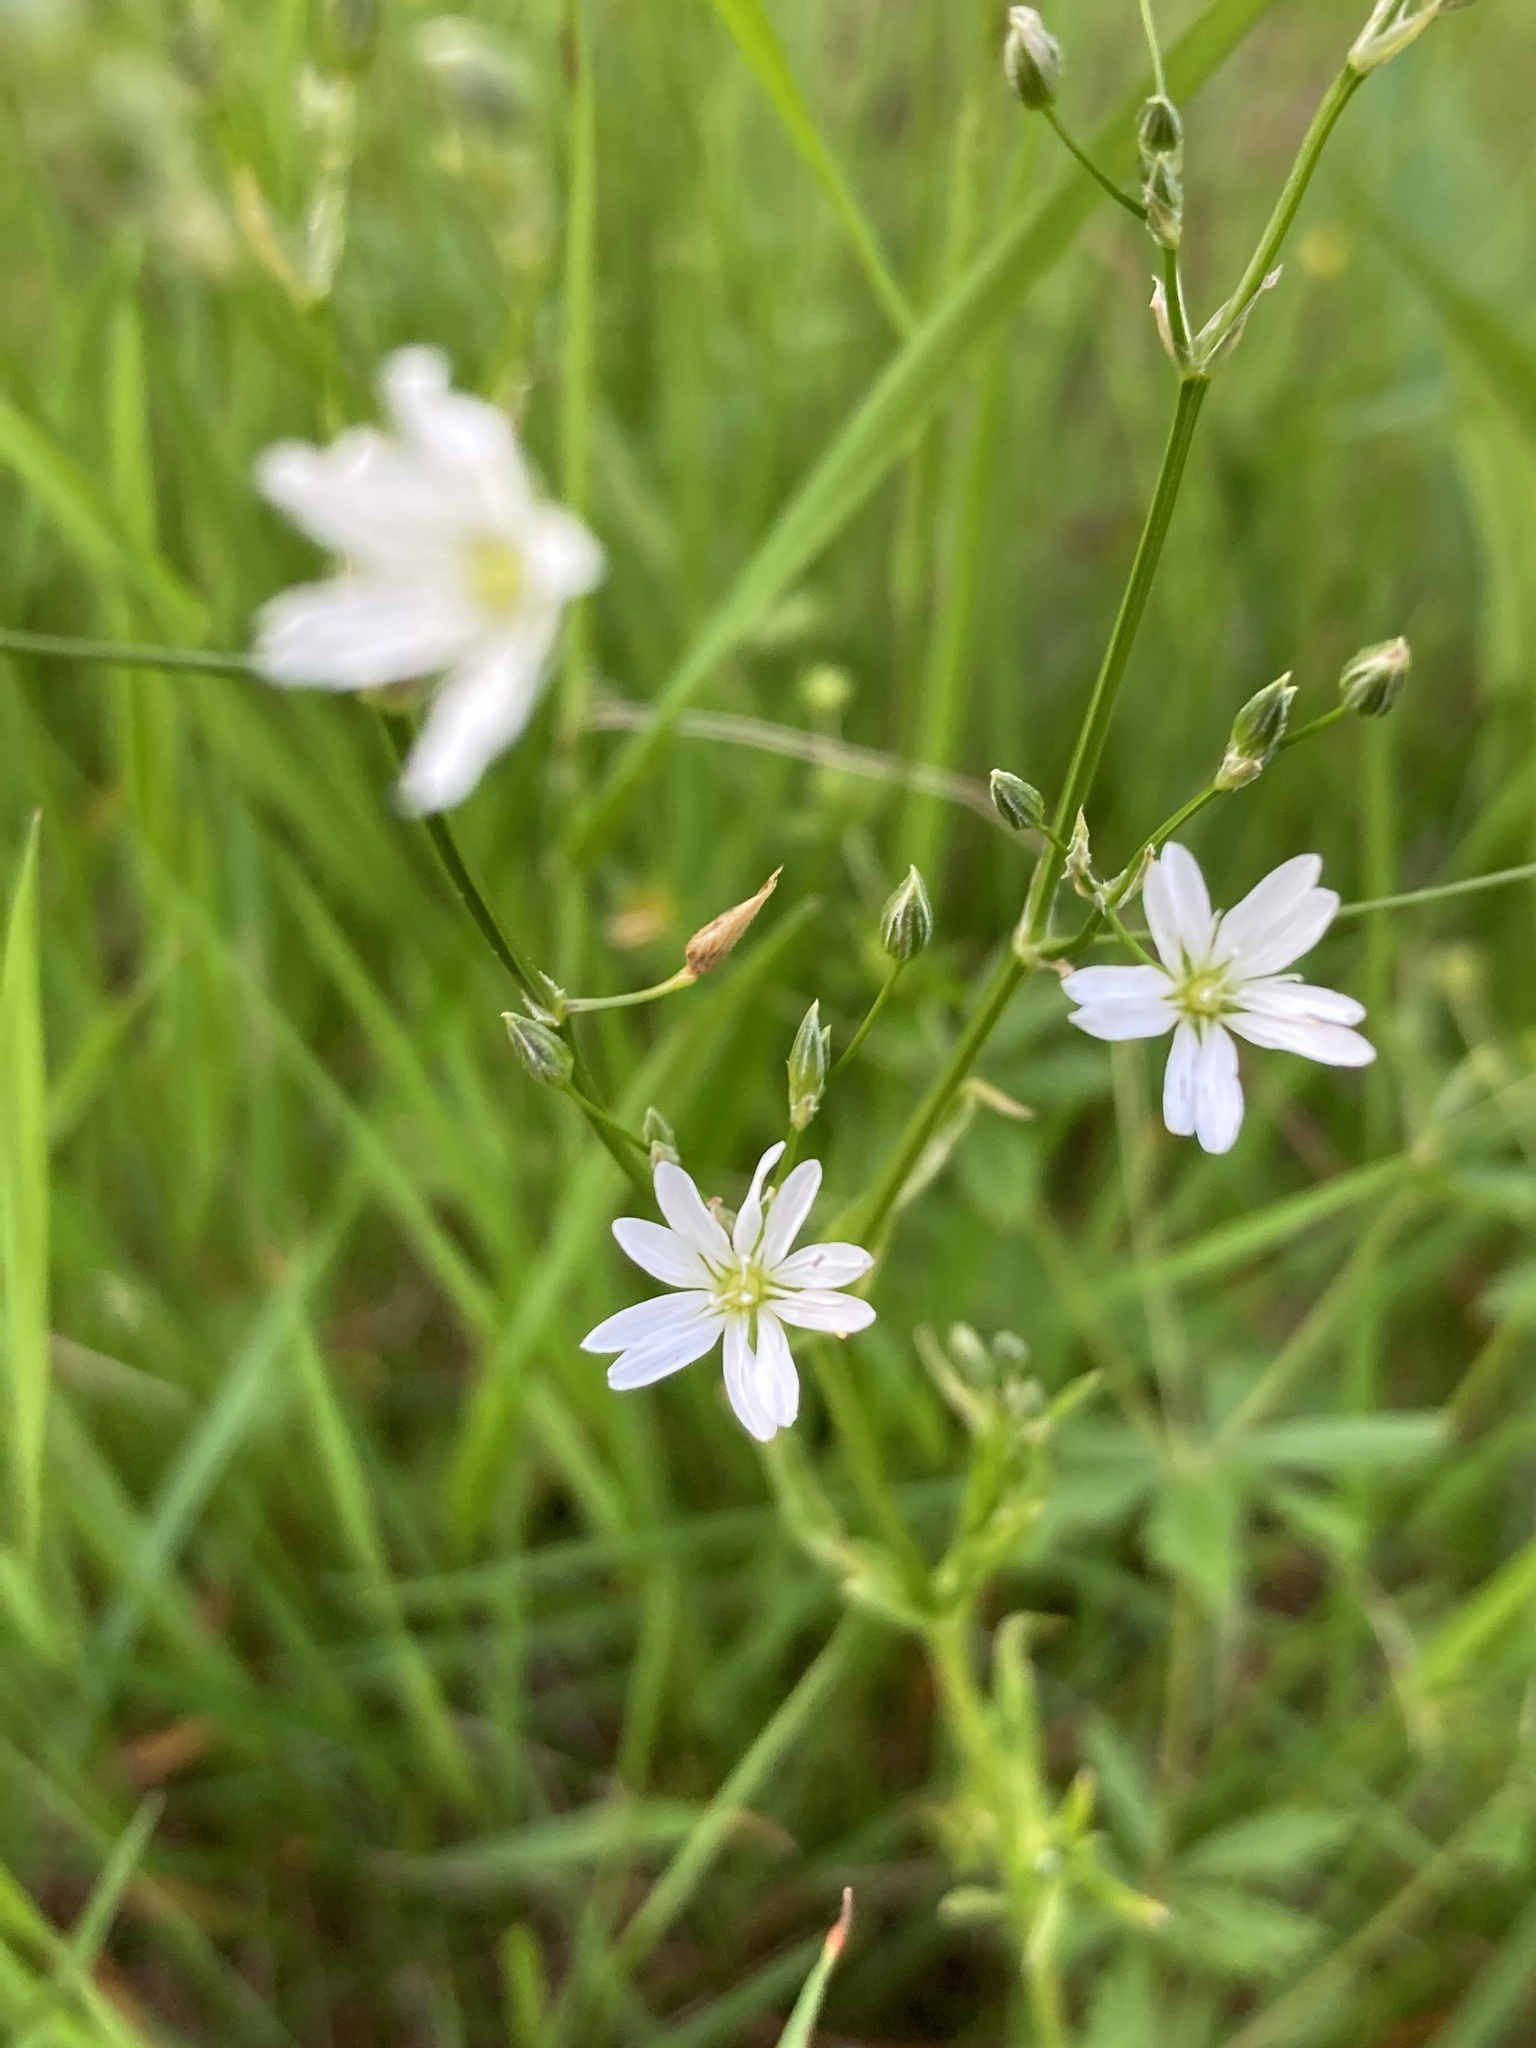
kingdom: Plantae
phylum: Tracheophyta
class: Magnoliopsida
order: Caryophyllales
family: Caryophyllaceae
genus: Stellaria
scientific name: Stellaria graminea
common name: Grass-like starwort
